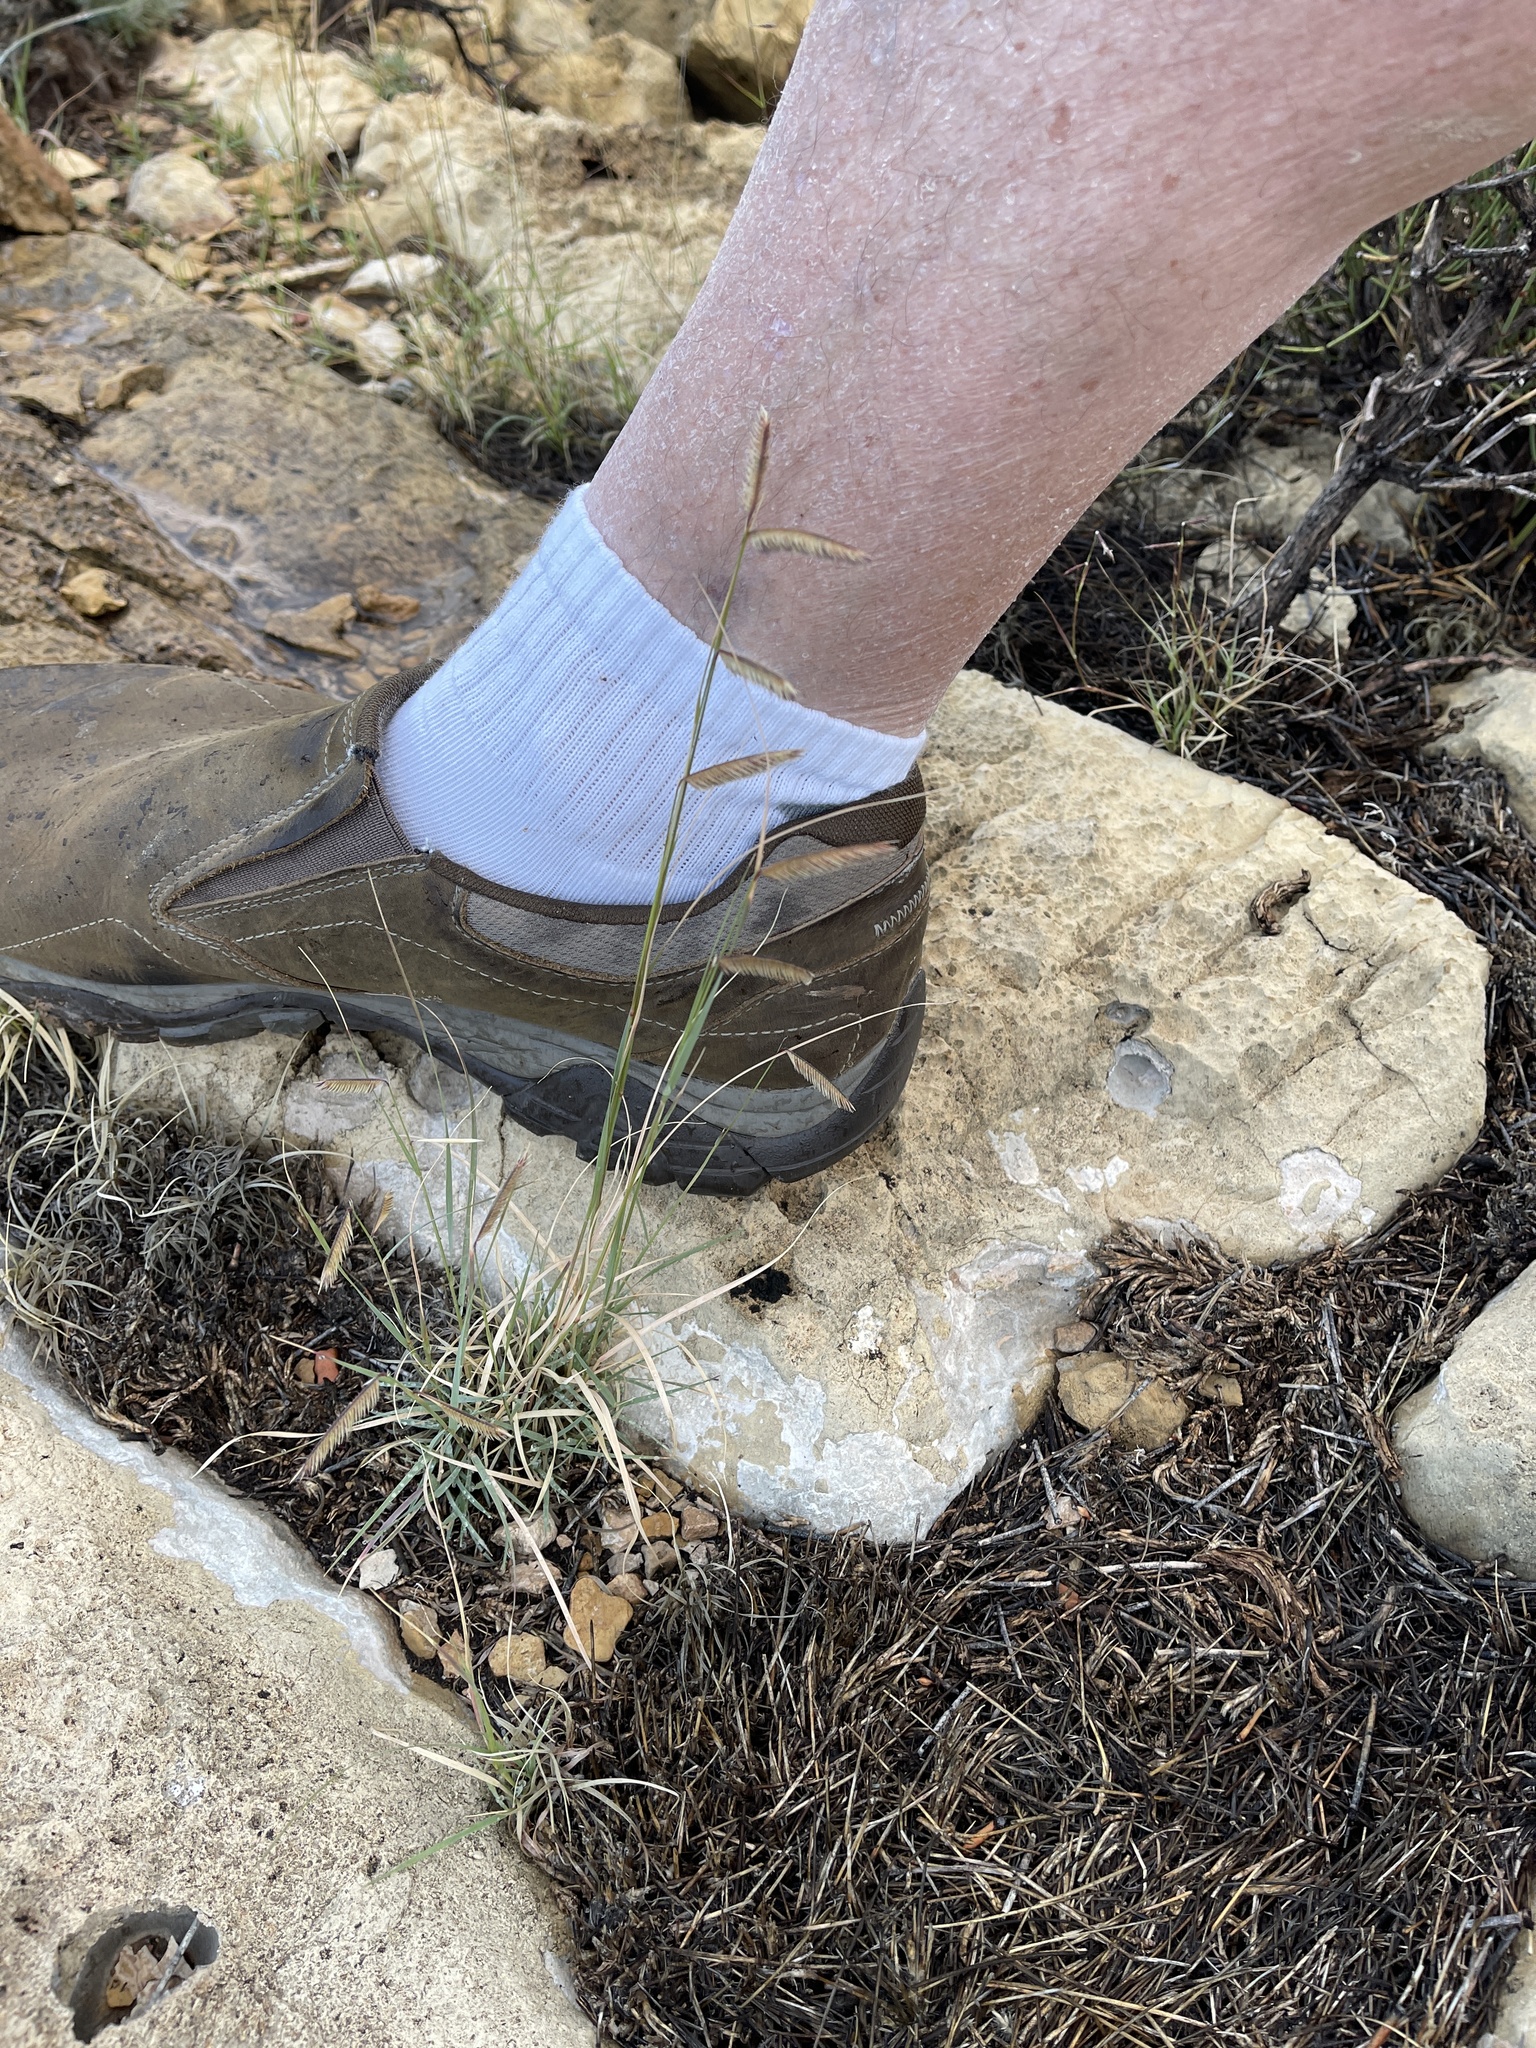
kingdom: Plantae
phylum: Tracheophyta
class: Liliopsida
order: Poales
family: Poaceae
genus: Bouteloua
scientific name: Bouteloua hirsuta
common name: Hairy grama
